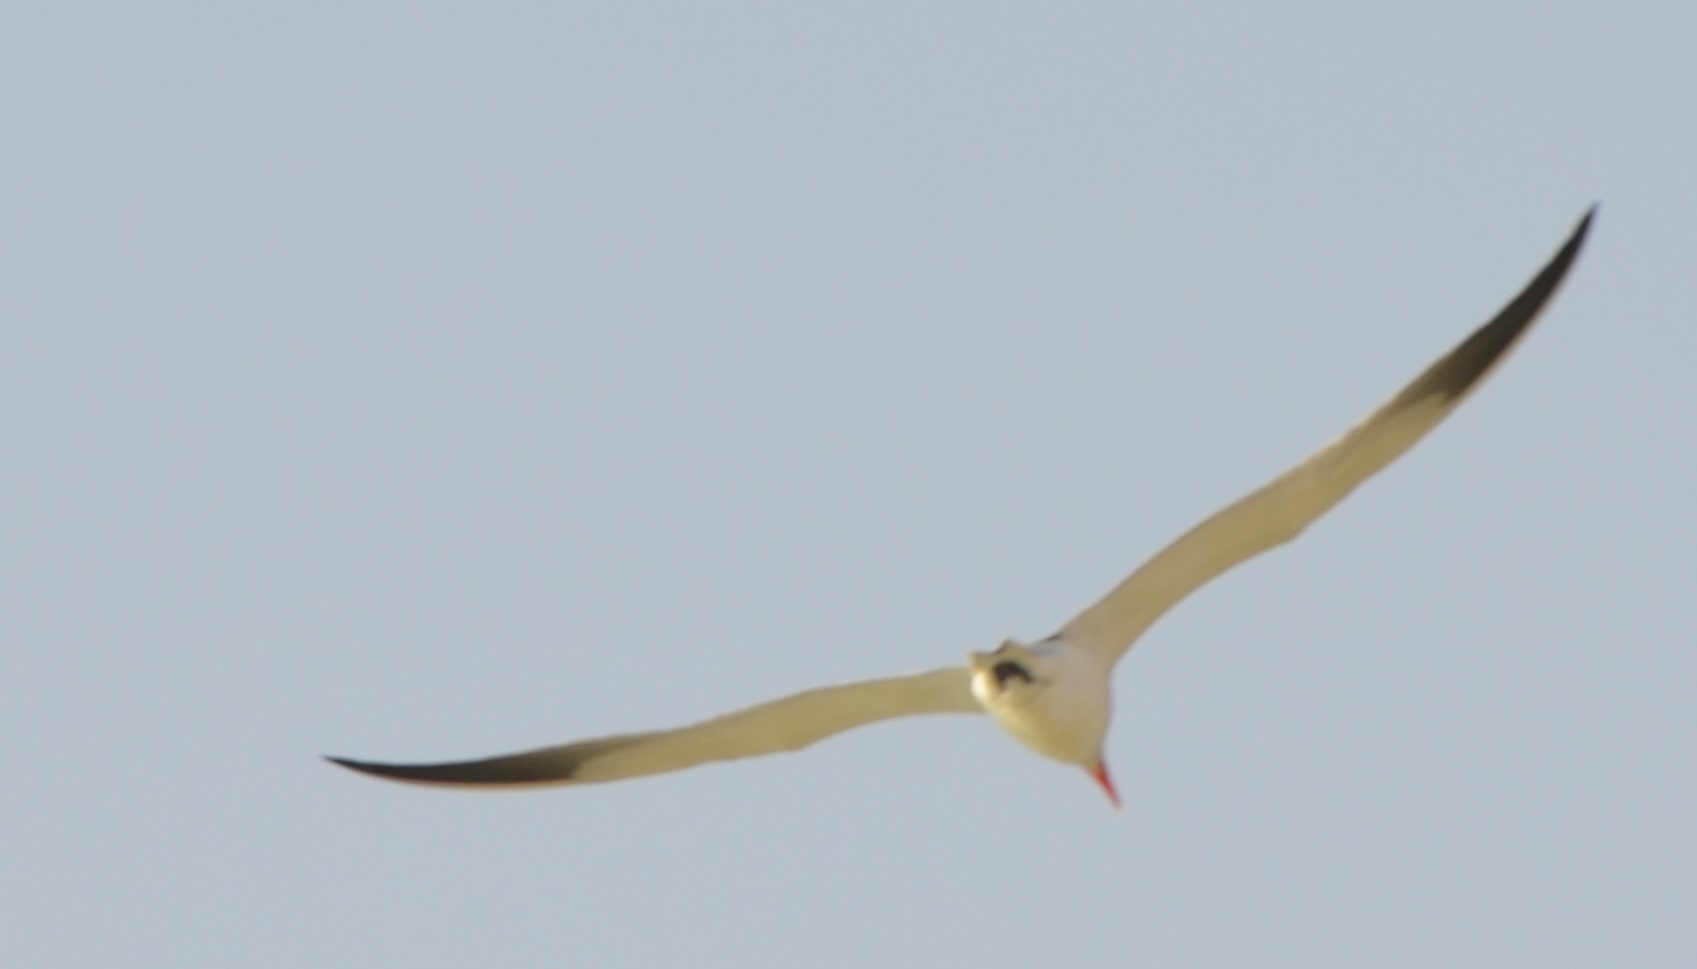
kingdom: Animalia
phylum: Chordata
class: Aves
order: Charadriiformes
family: Laridae
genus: Hydroprogne
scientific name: Hydroprogne caspia
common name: Caspian tern
